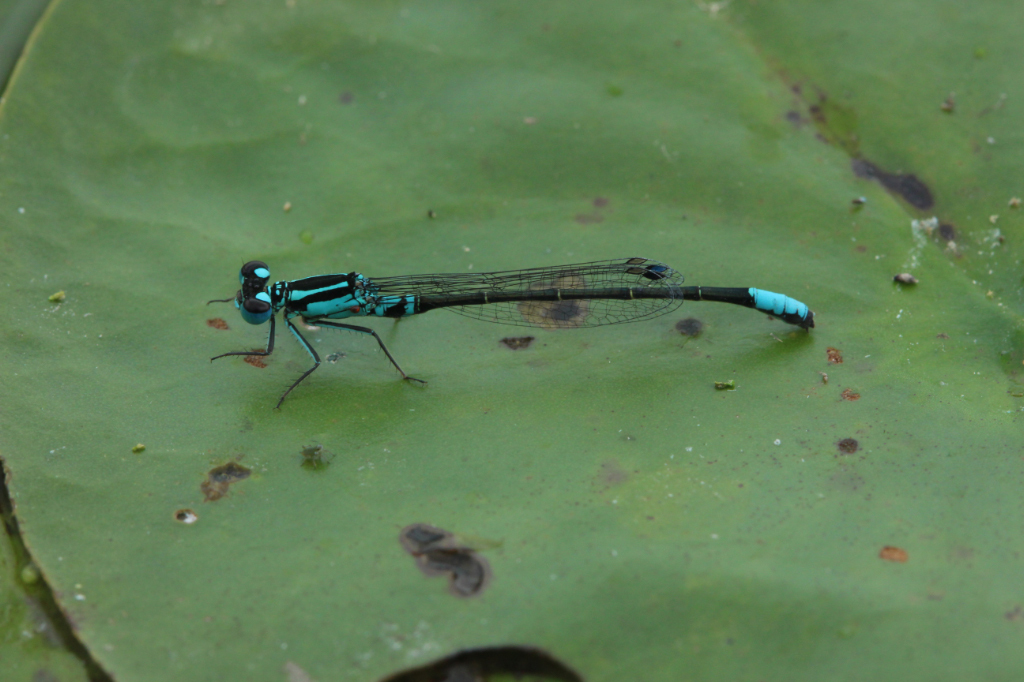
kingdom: Animalia
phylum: Arthropoda
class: Insecta
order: Odonata
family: Coenagrionidae
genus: Ischnura
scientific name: Ischnura kellicotti
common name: Lilypad forktail
